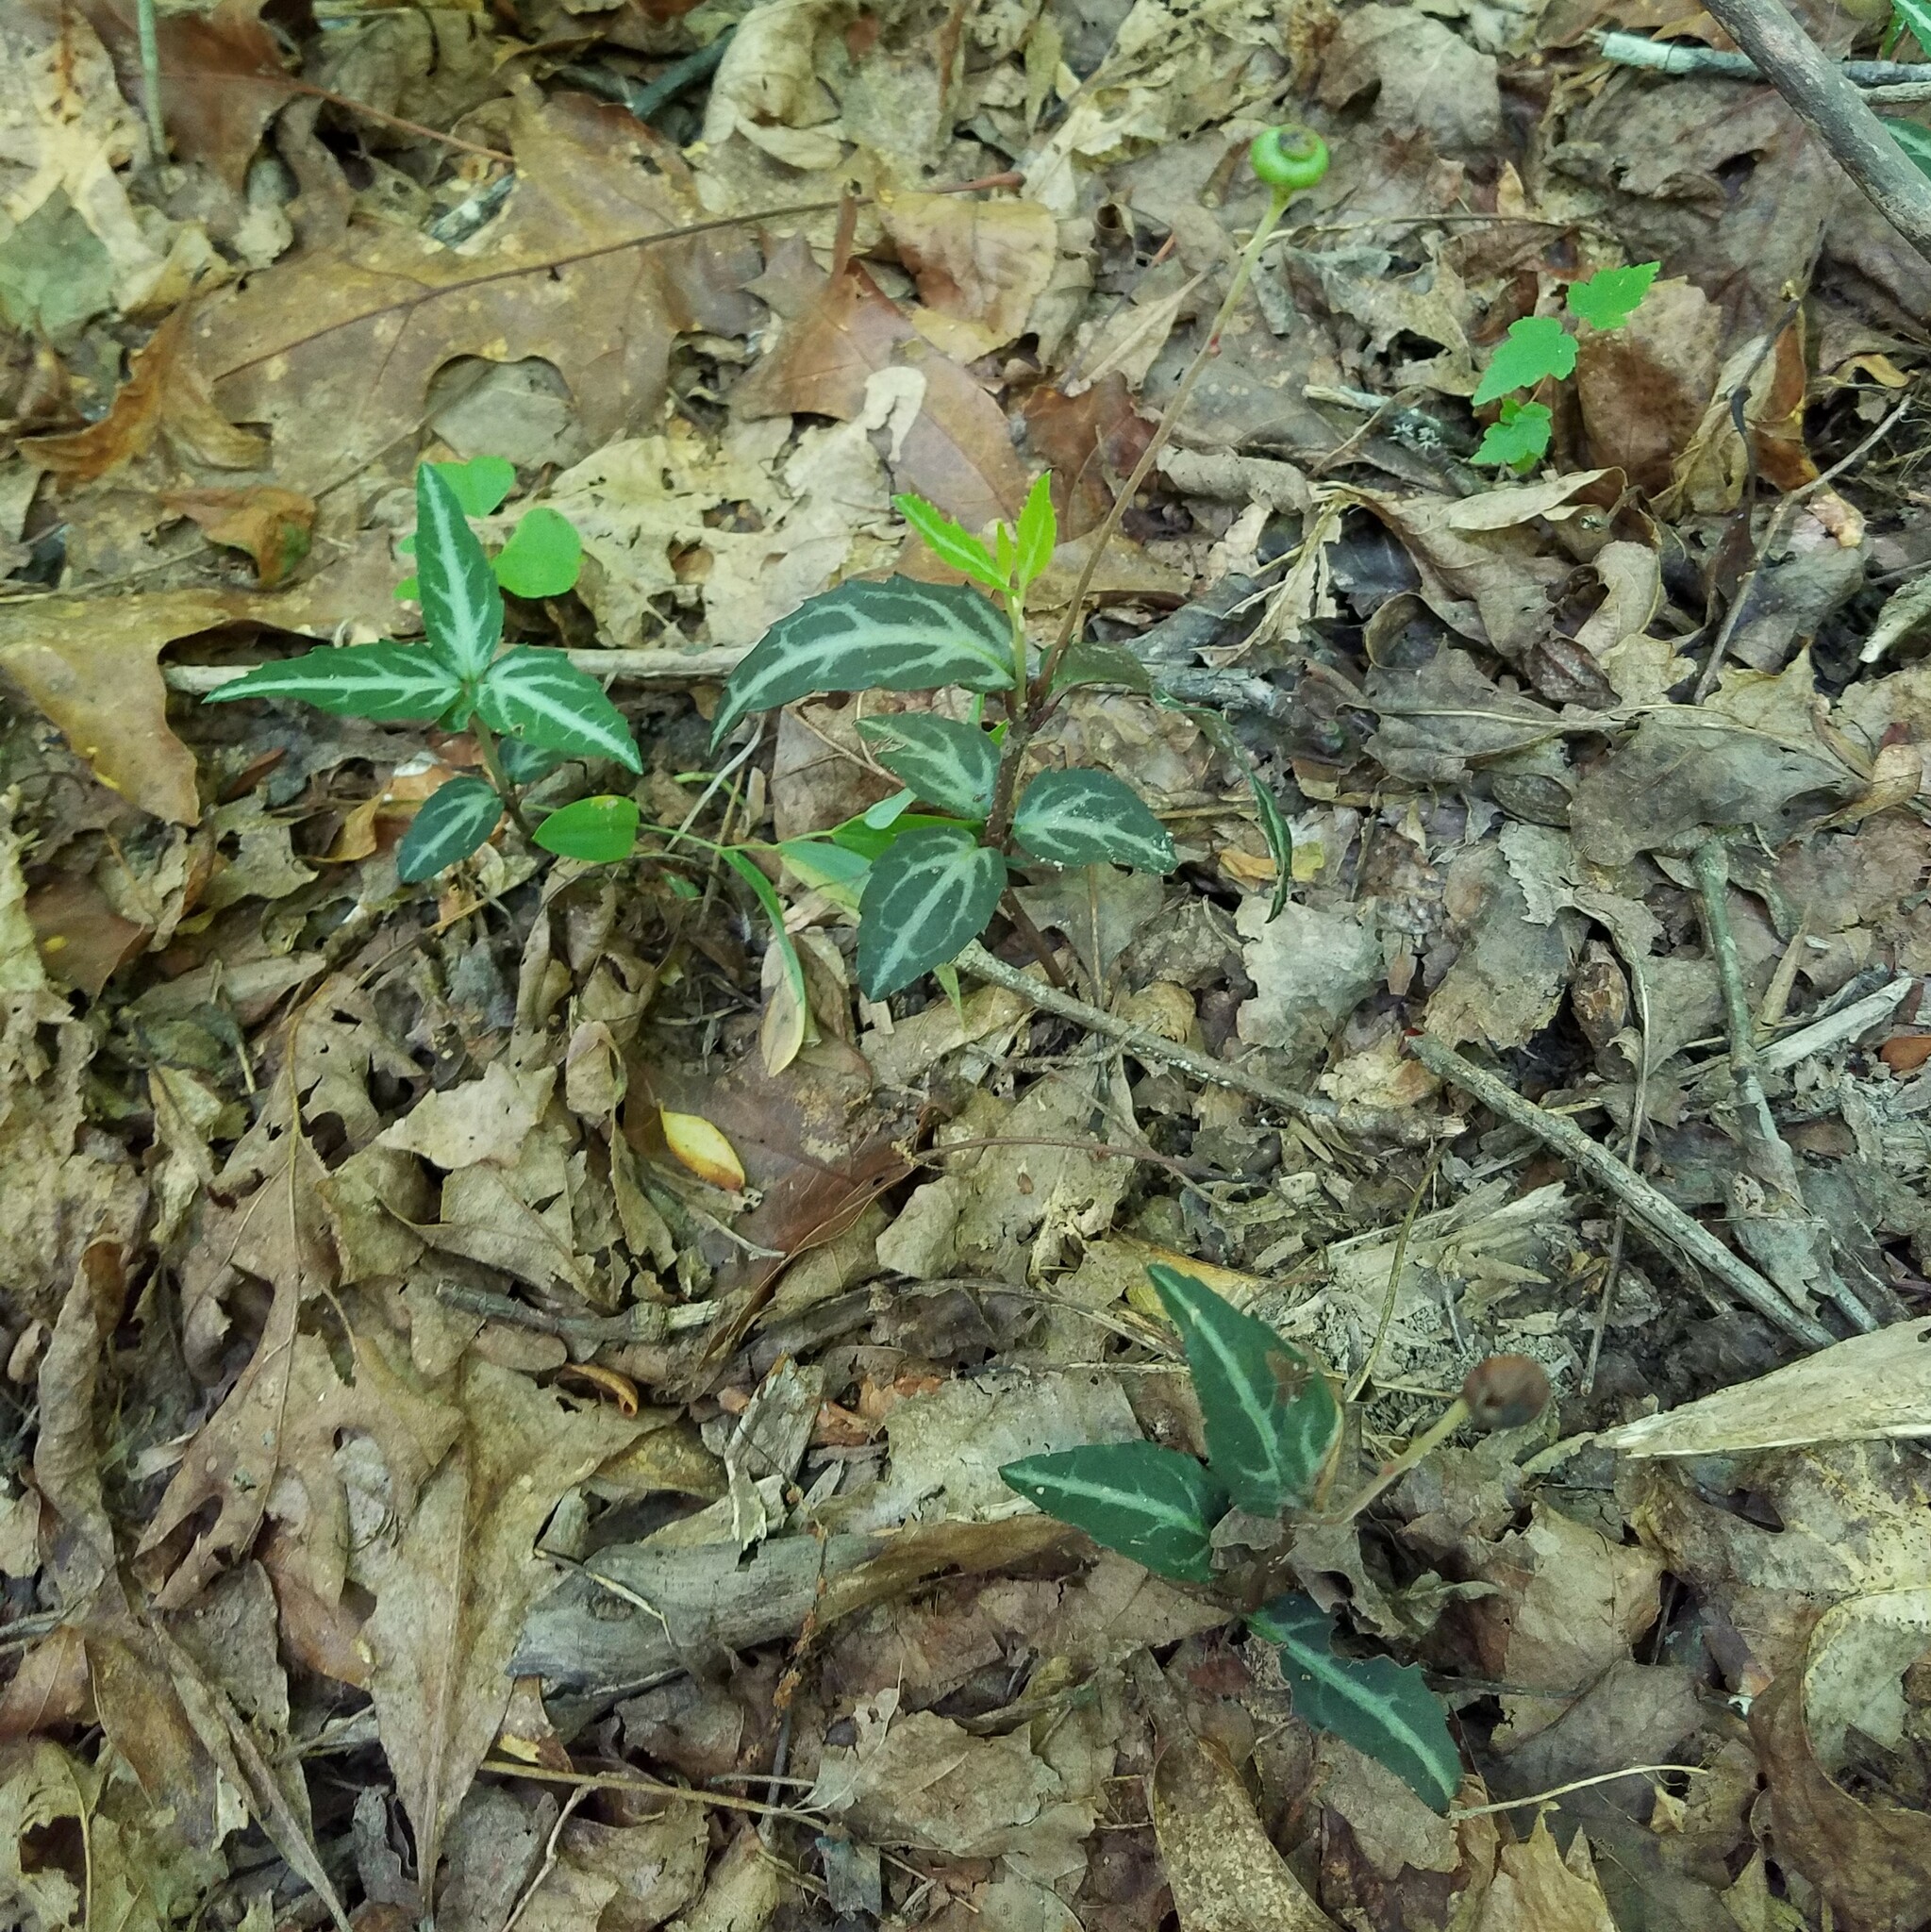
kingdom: Plantae
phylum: Tracheophyta
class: Magnoliopsida
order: Ericales
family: Ericaceae
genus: Chimaphila
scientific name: Chimaphila maculata
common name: Spotted pipsissewa
